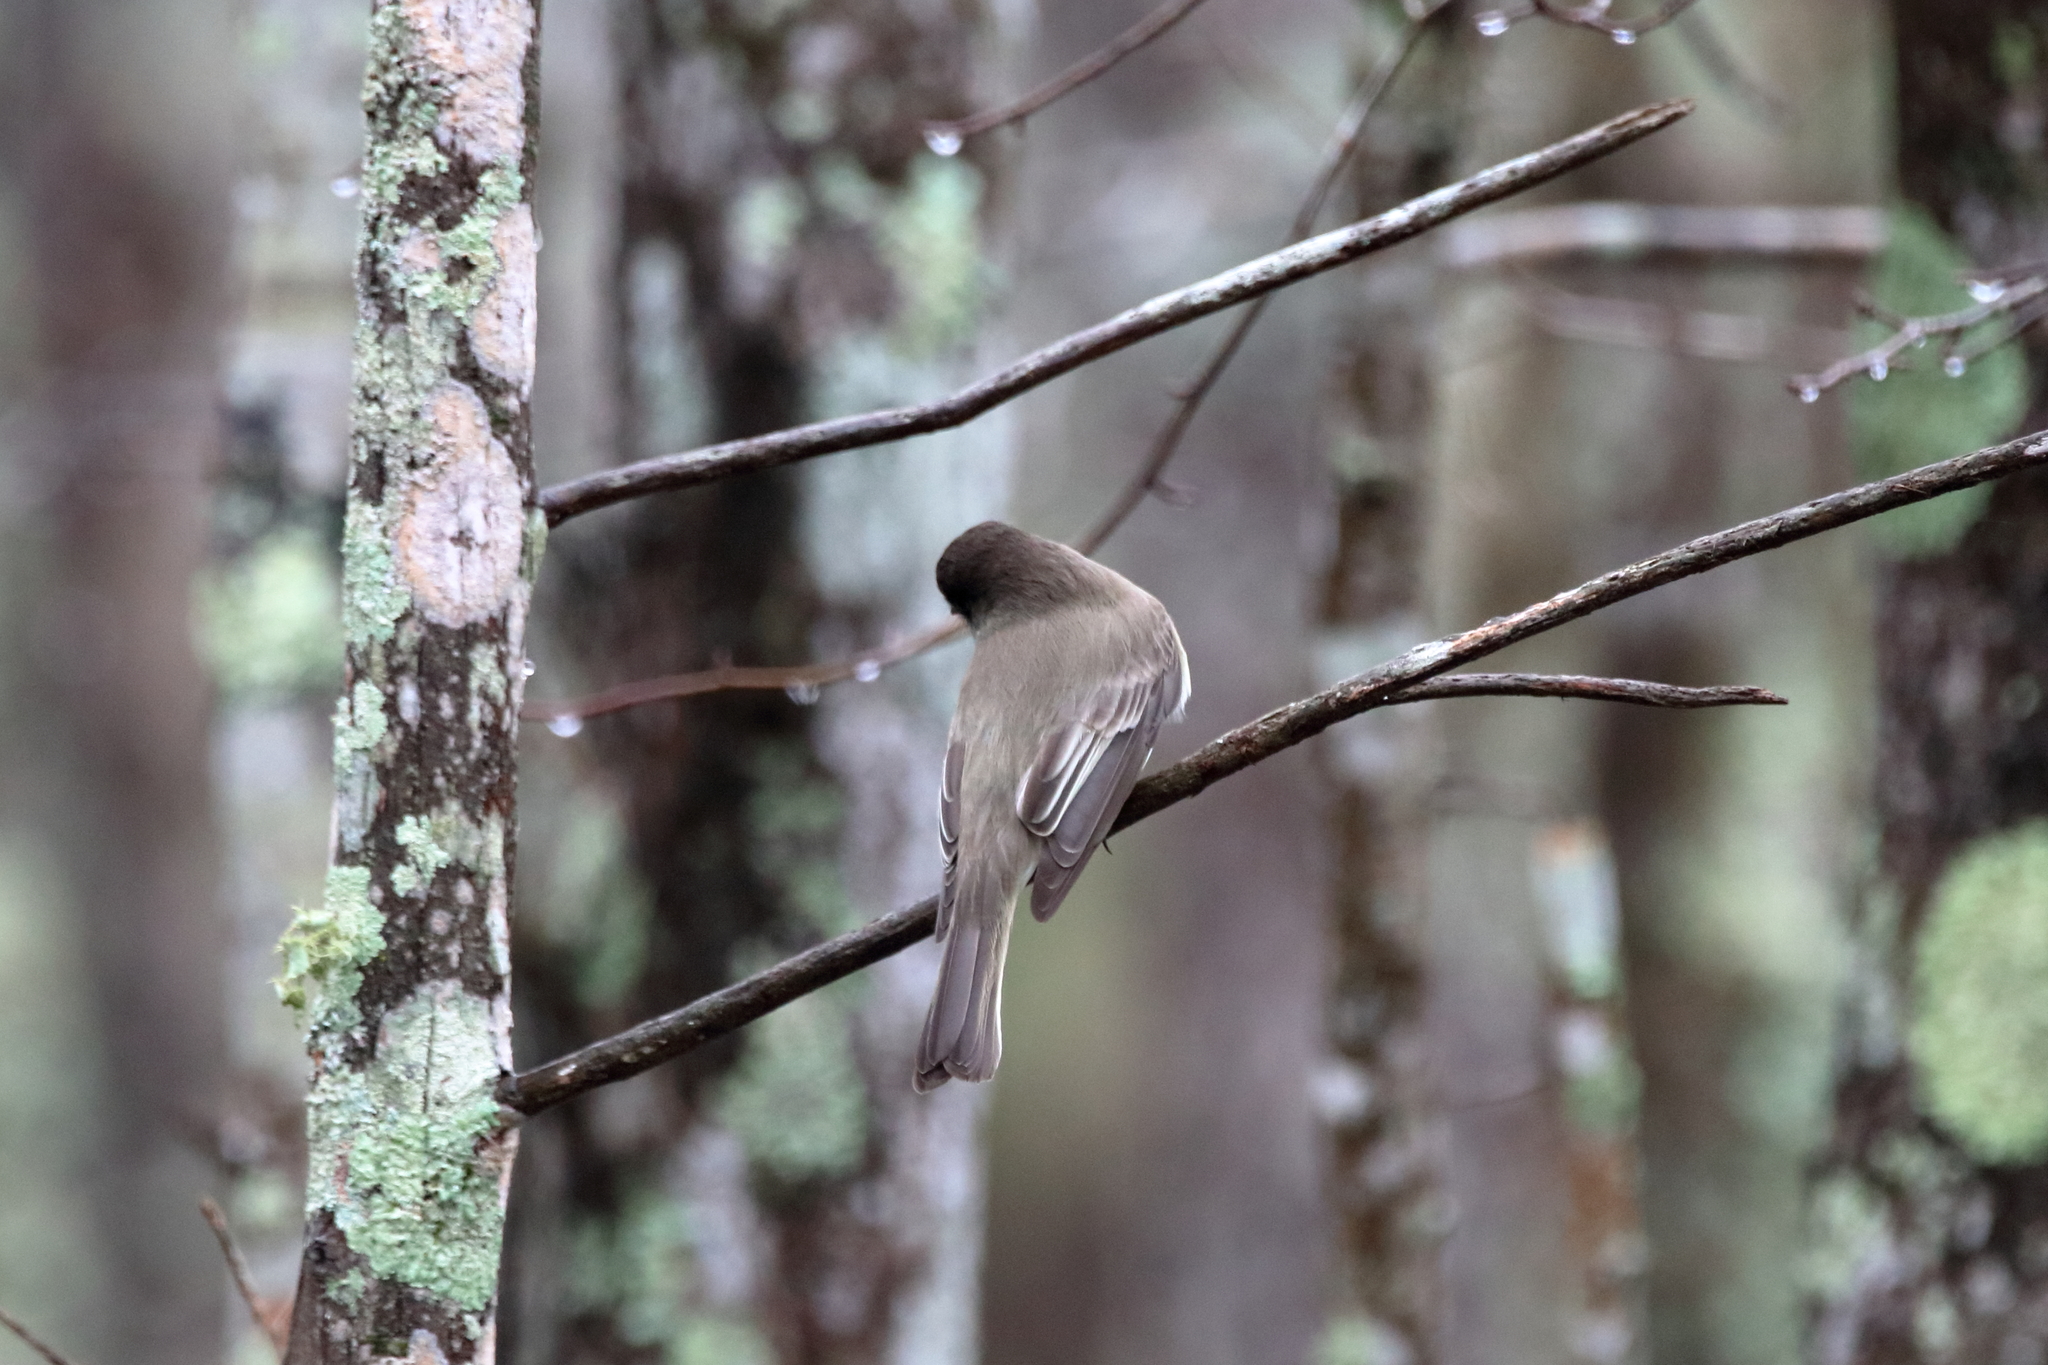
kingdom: Animalia
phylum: Chordata
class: Aves
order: Passeriformes
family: Tyrannidae
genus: Sayornis
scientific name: Sayornis phoebe
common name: Eastern phoebe
